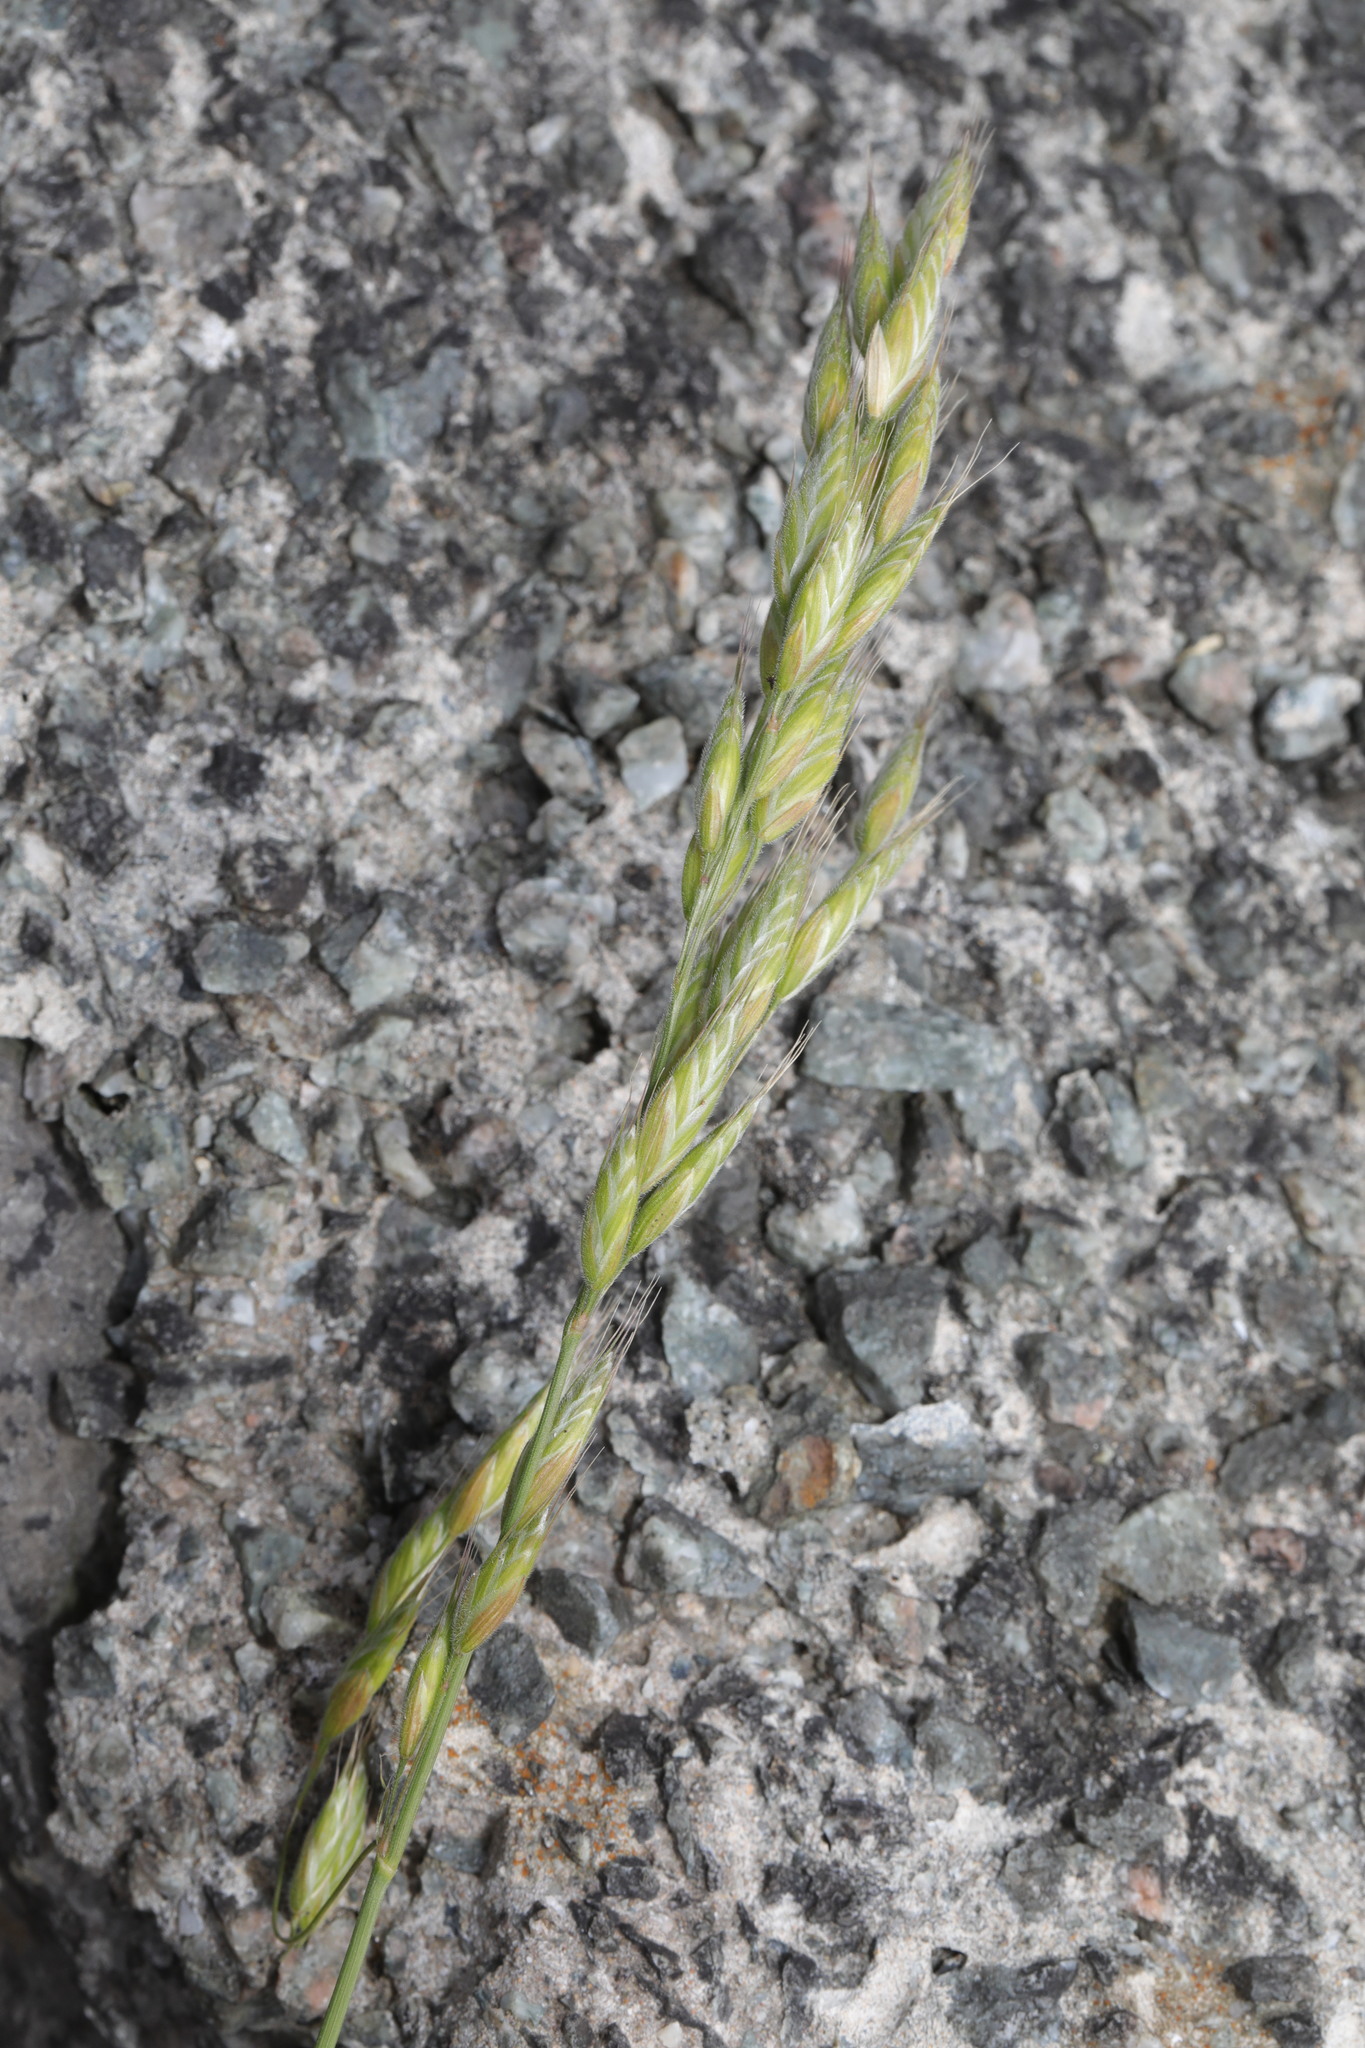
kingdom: Plantae
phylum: Tracheophyta
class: Liliopsida
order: Poales
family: Poaceae
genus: Bromus
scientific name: Bromus hordeaceus
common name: Soft brome
